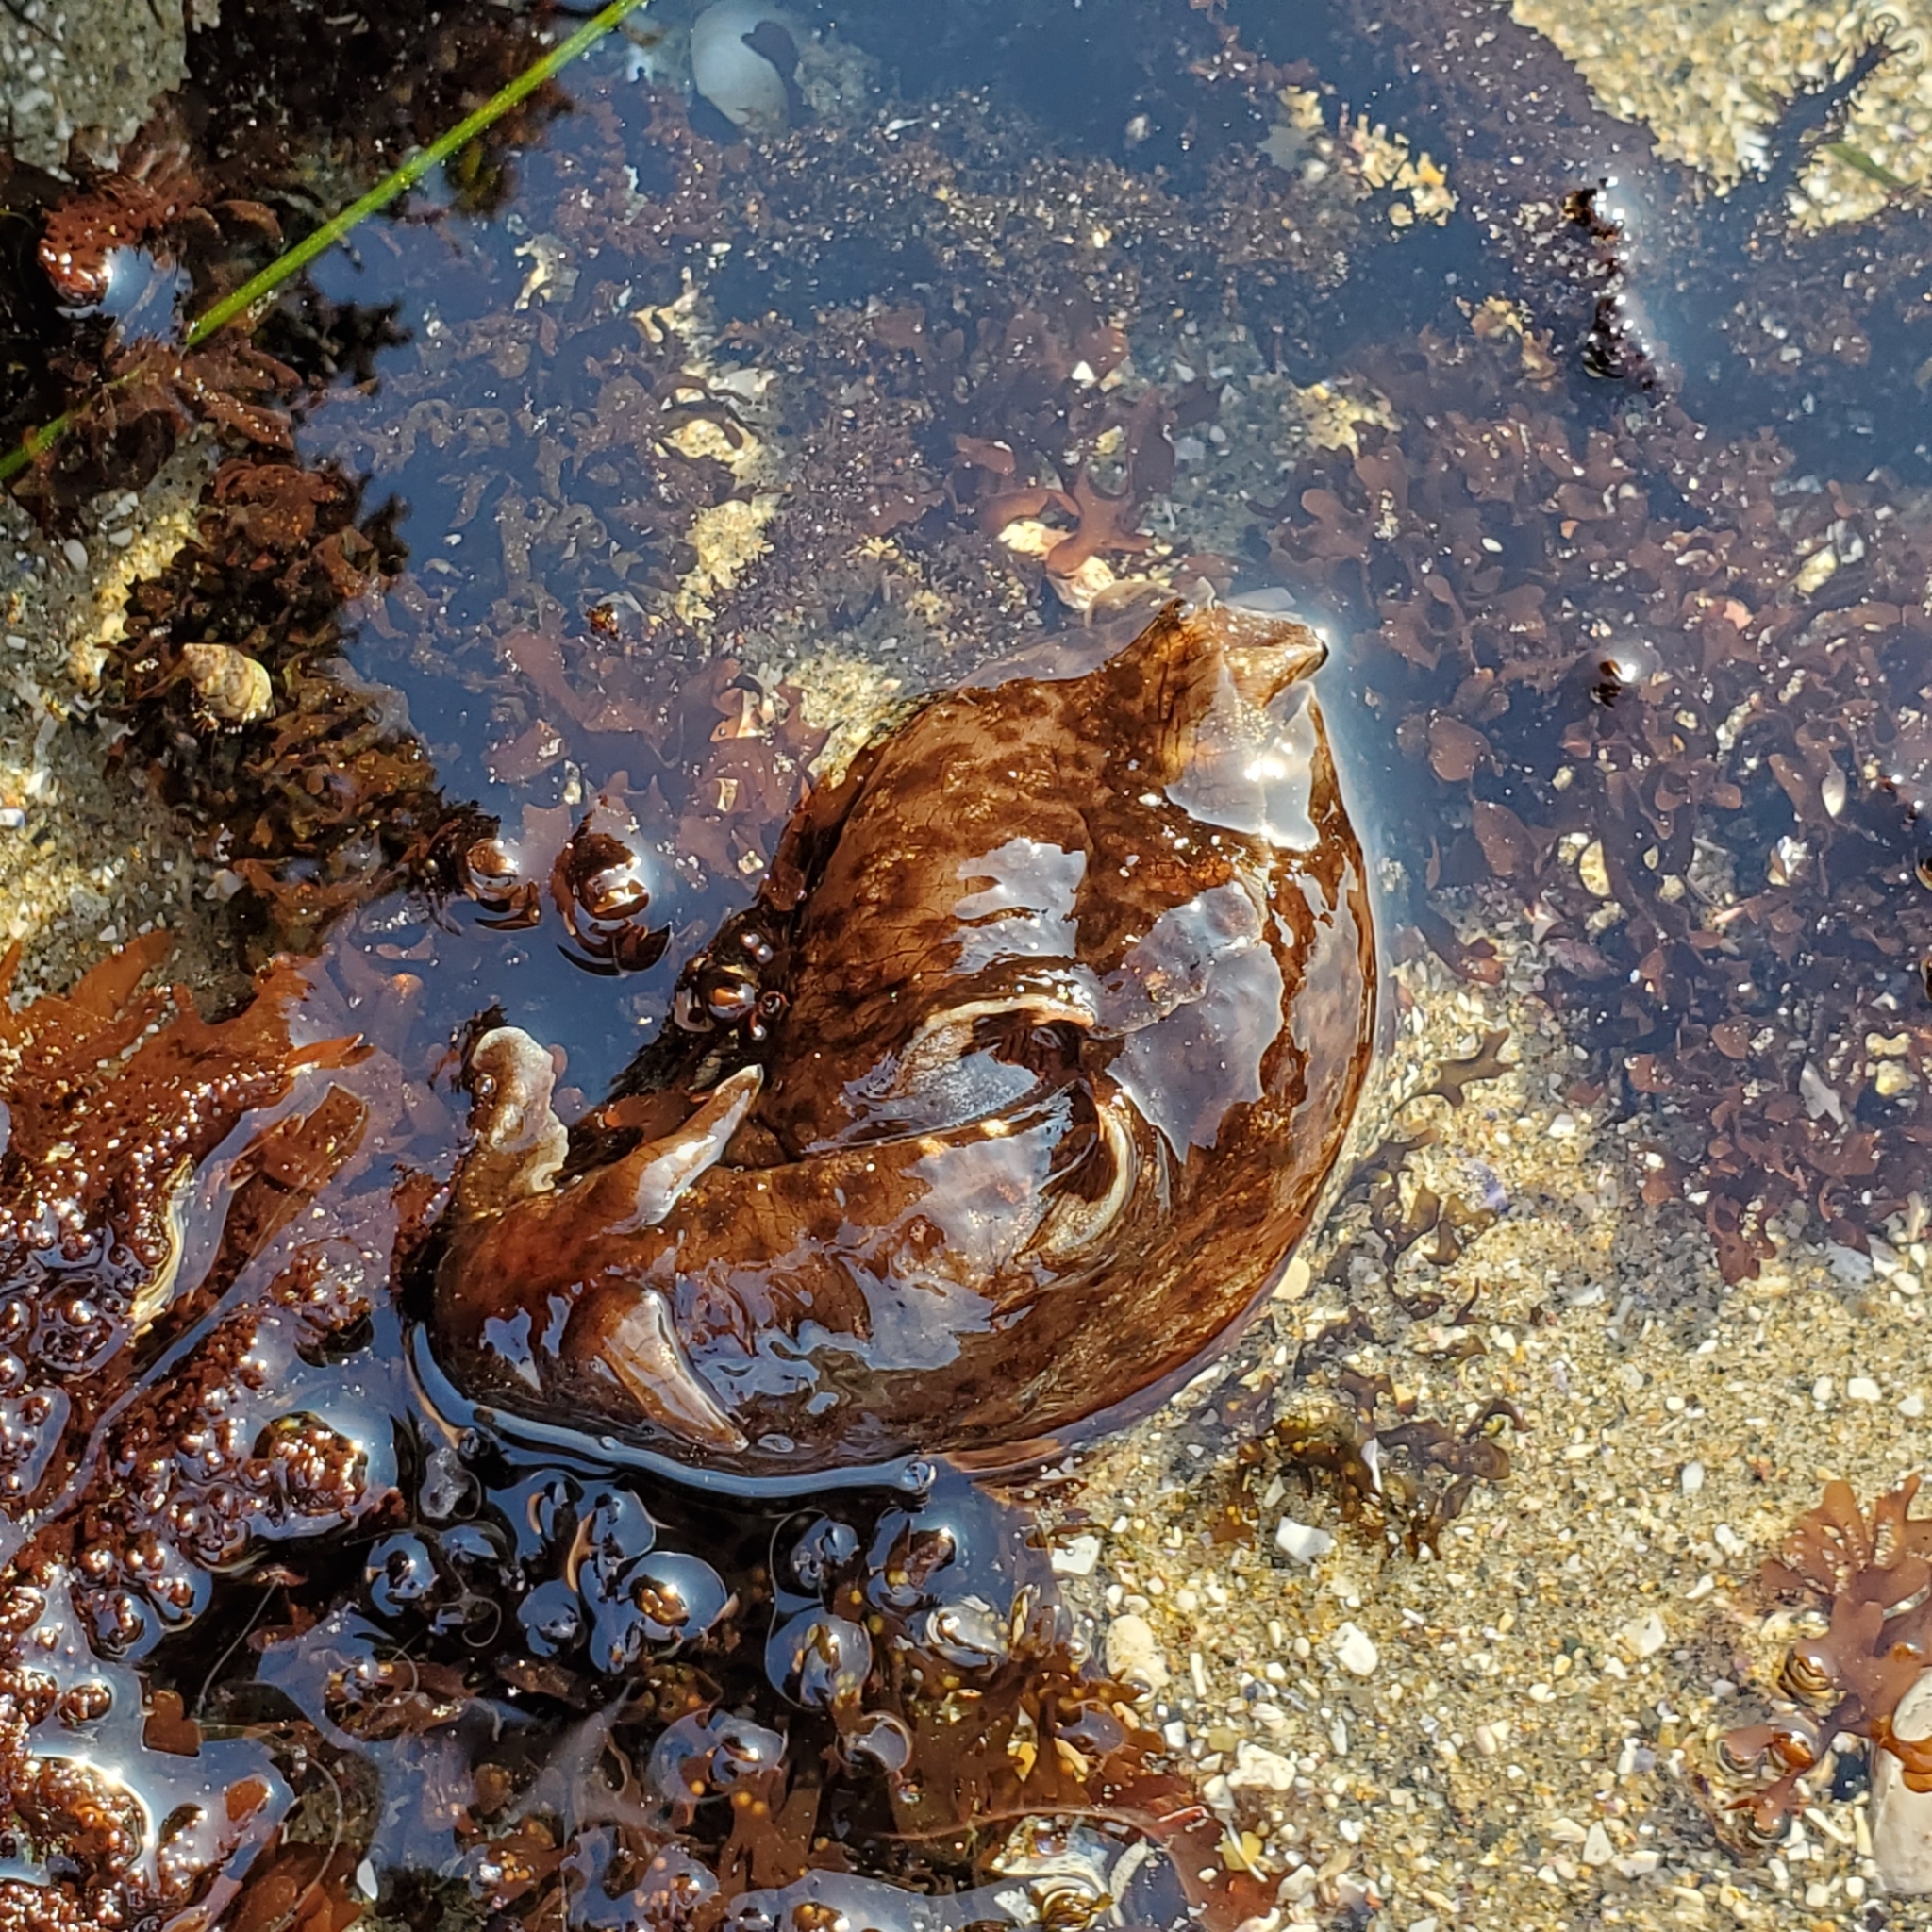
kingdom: Animalia
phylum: Mollusca
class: Gastropoda
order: Aplysiida
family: Aplysiidae
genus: Aplysia
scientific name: Aplysia californica
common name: California seahare
